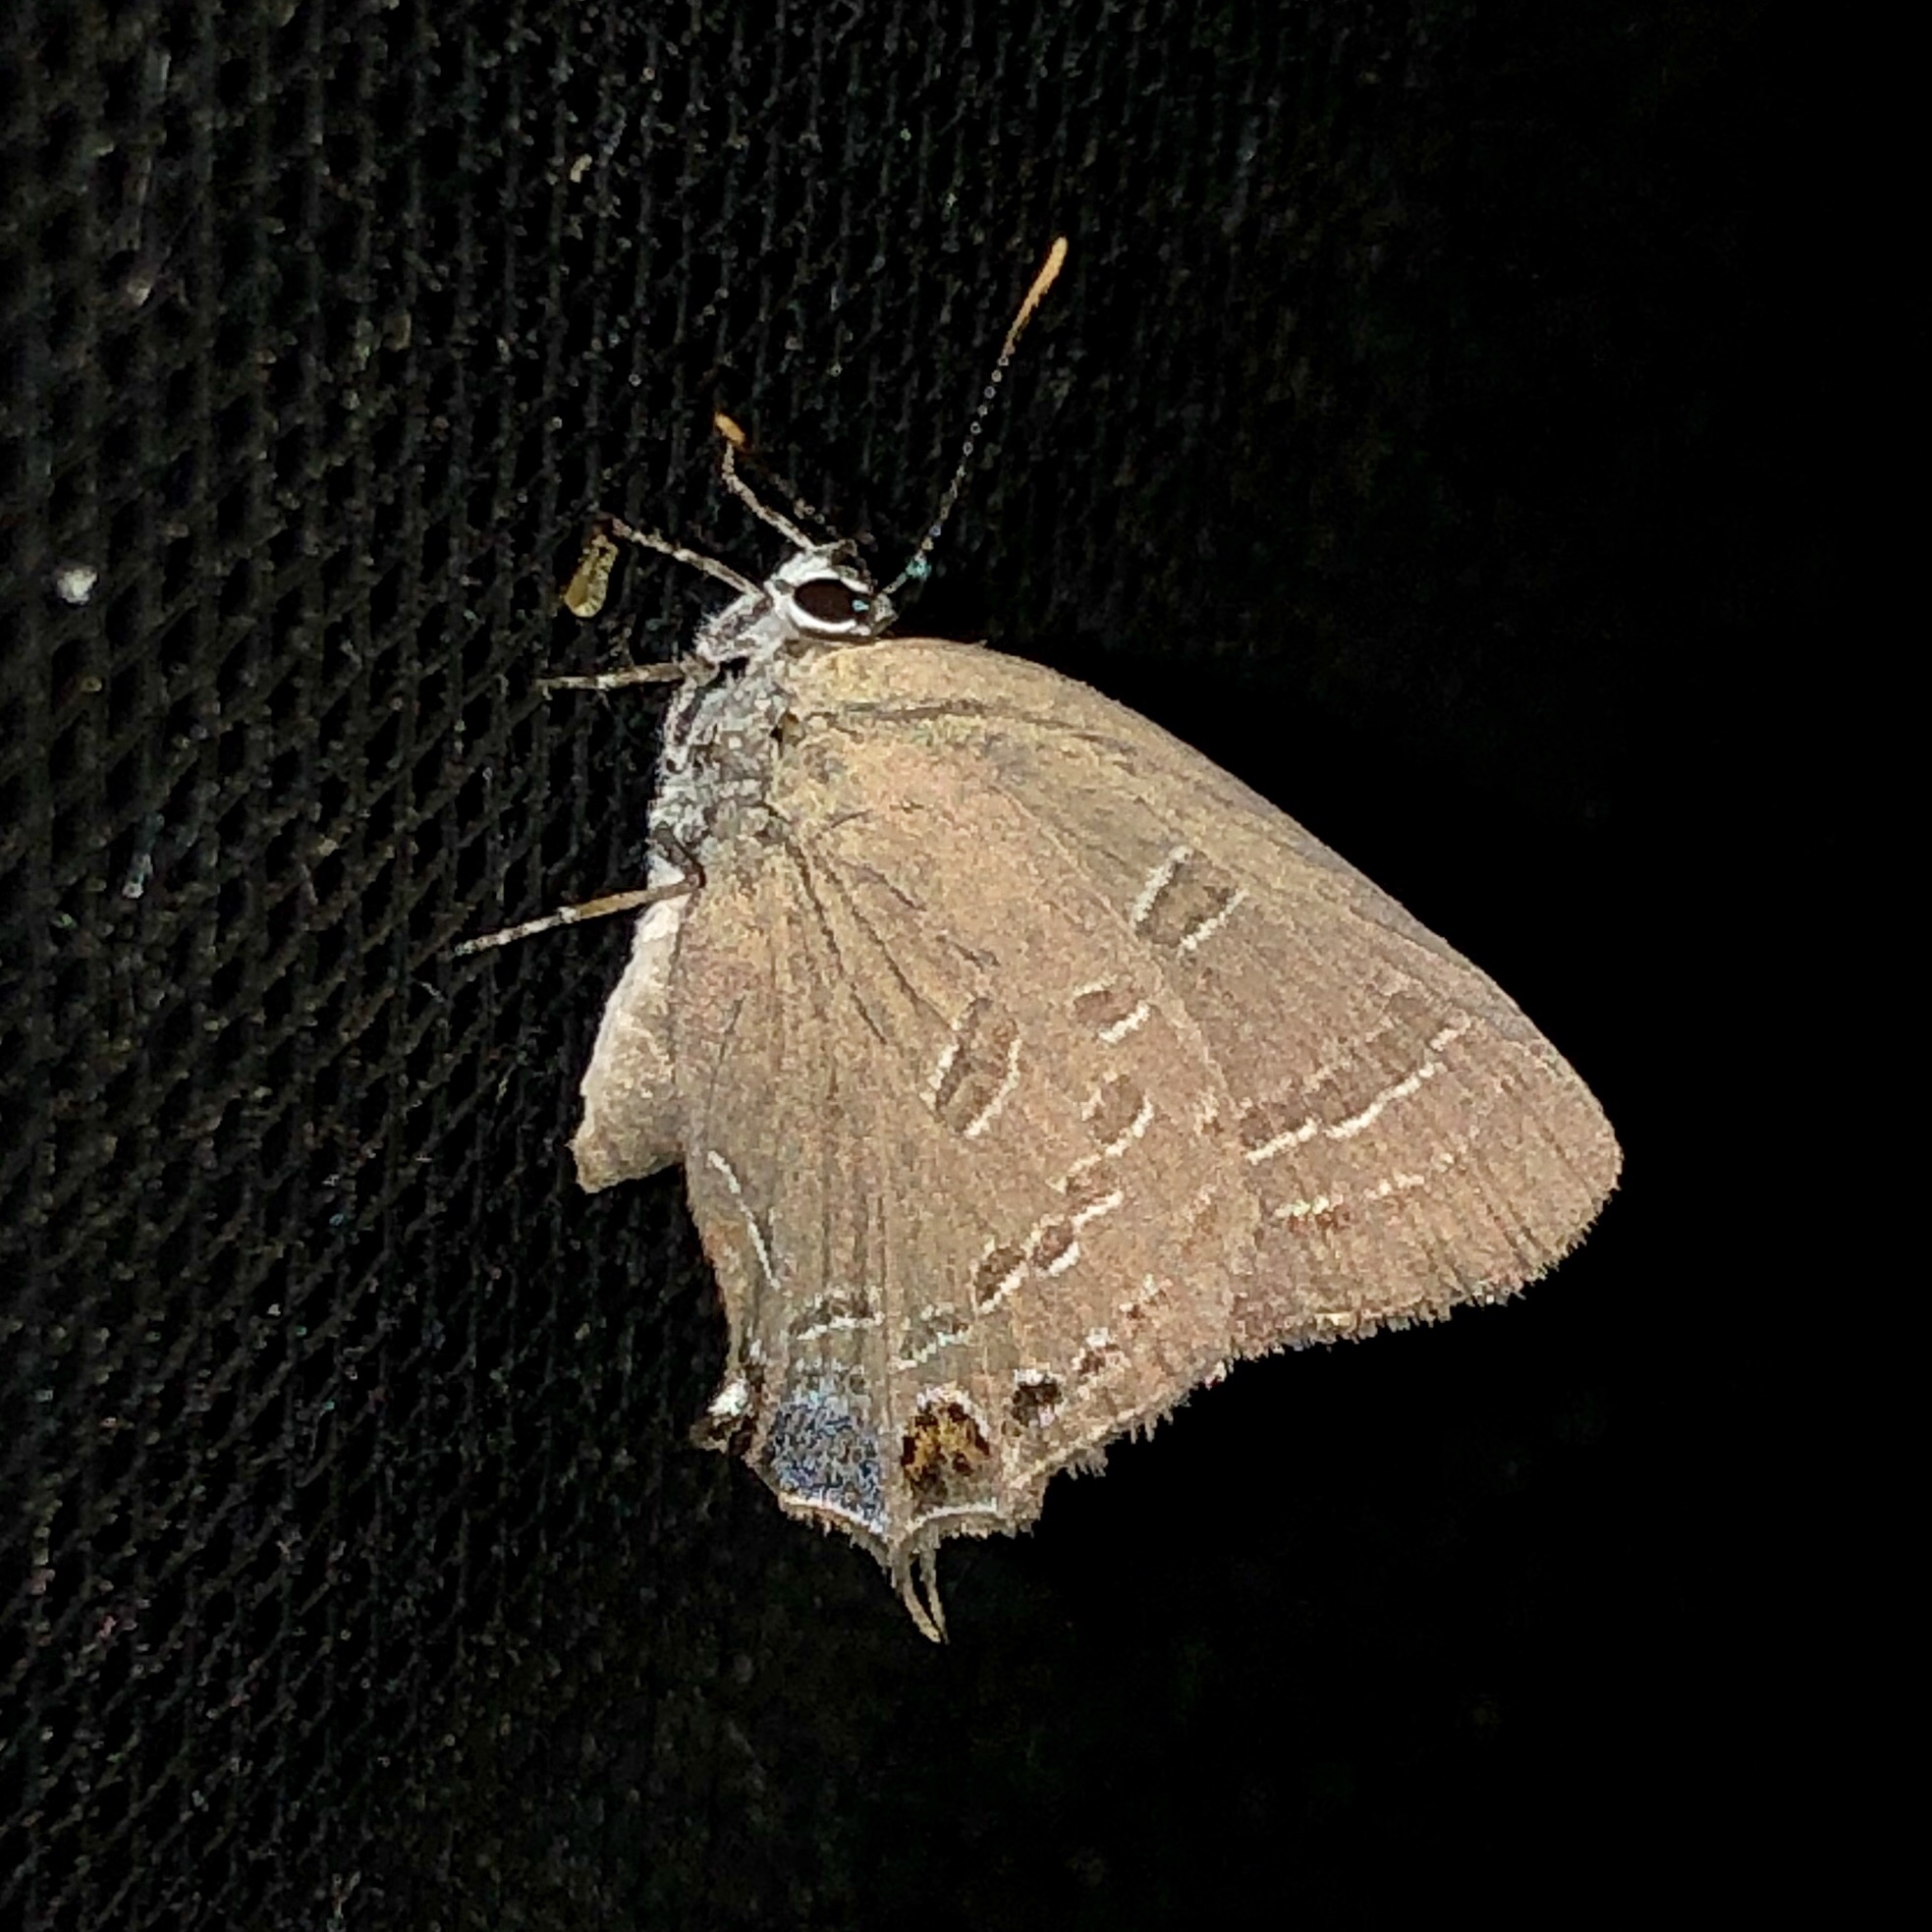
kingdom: Animalia
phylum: Arthropoda
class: Insecta
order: Lepidoptera
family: Lycaenidae
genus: Satyrium
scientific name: Satyrium calanus
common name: Banded hairstreak
